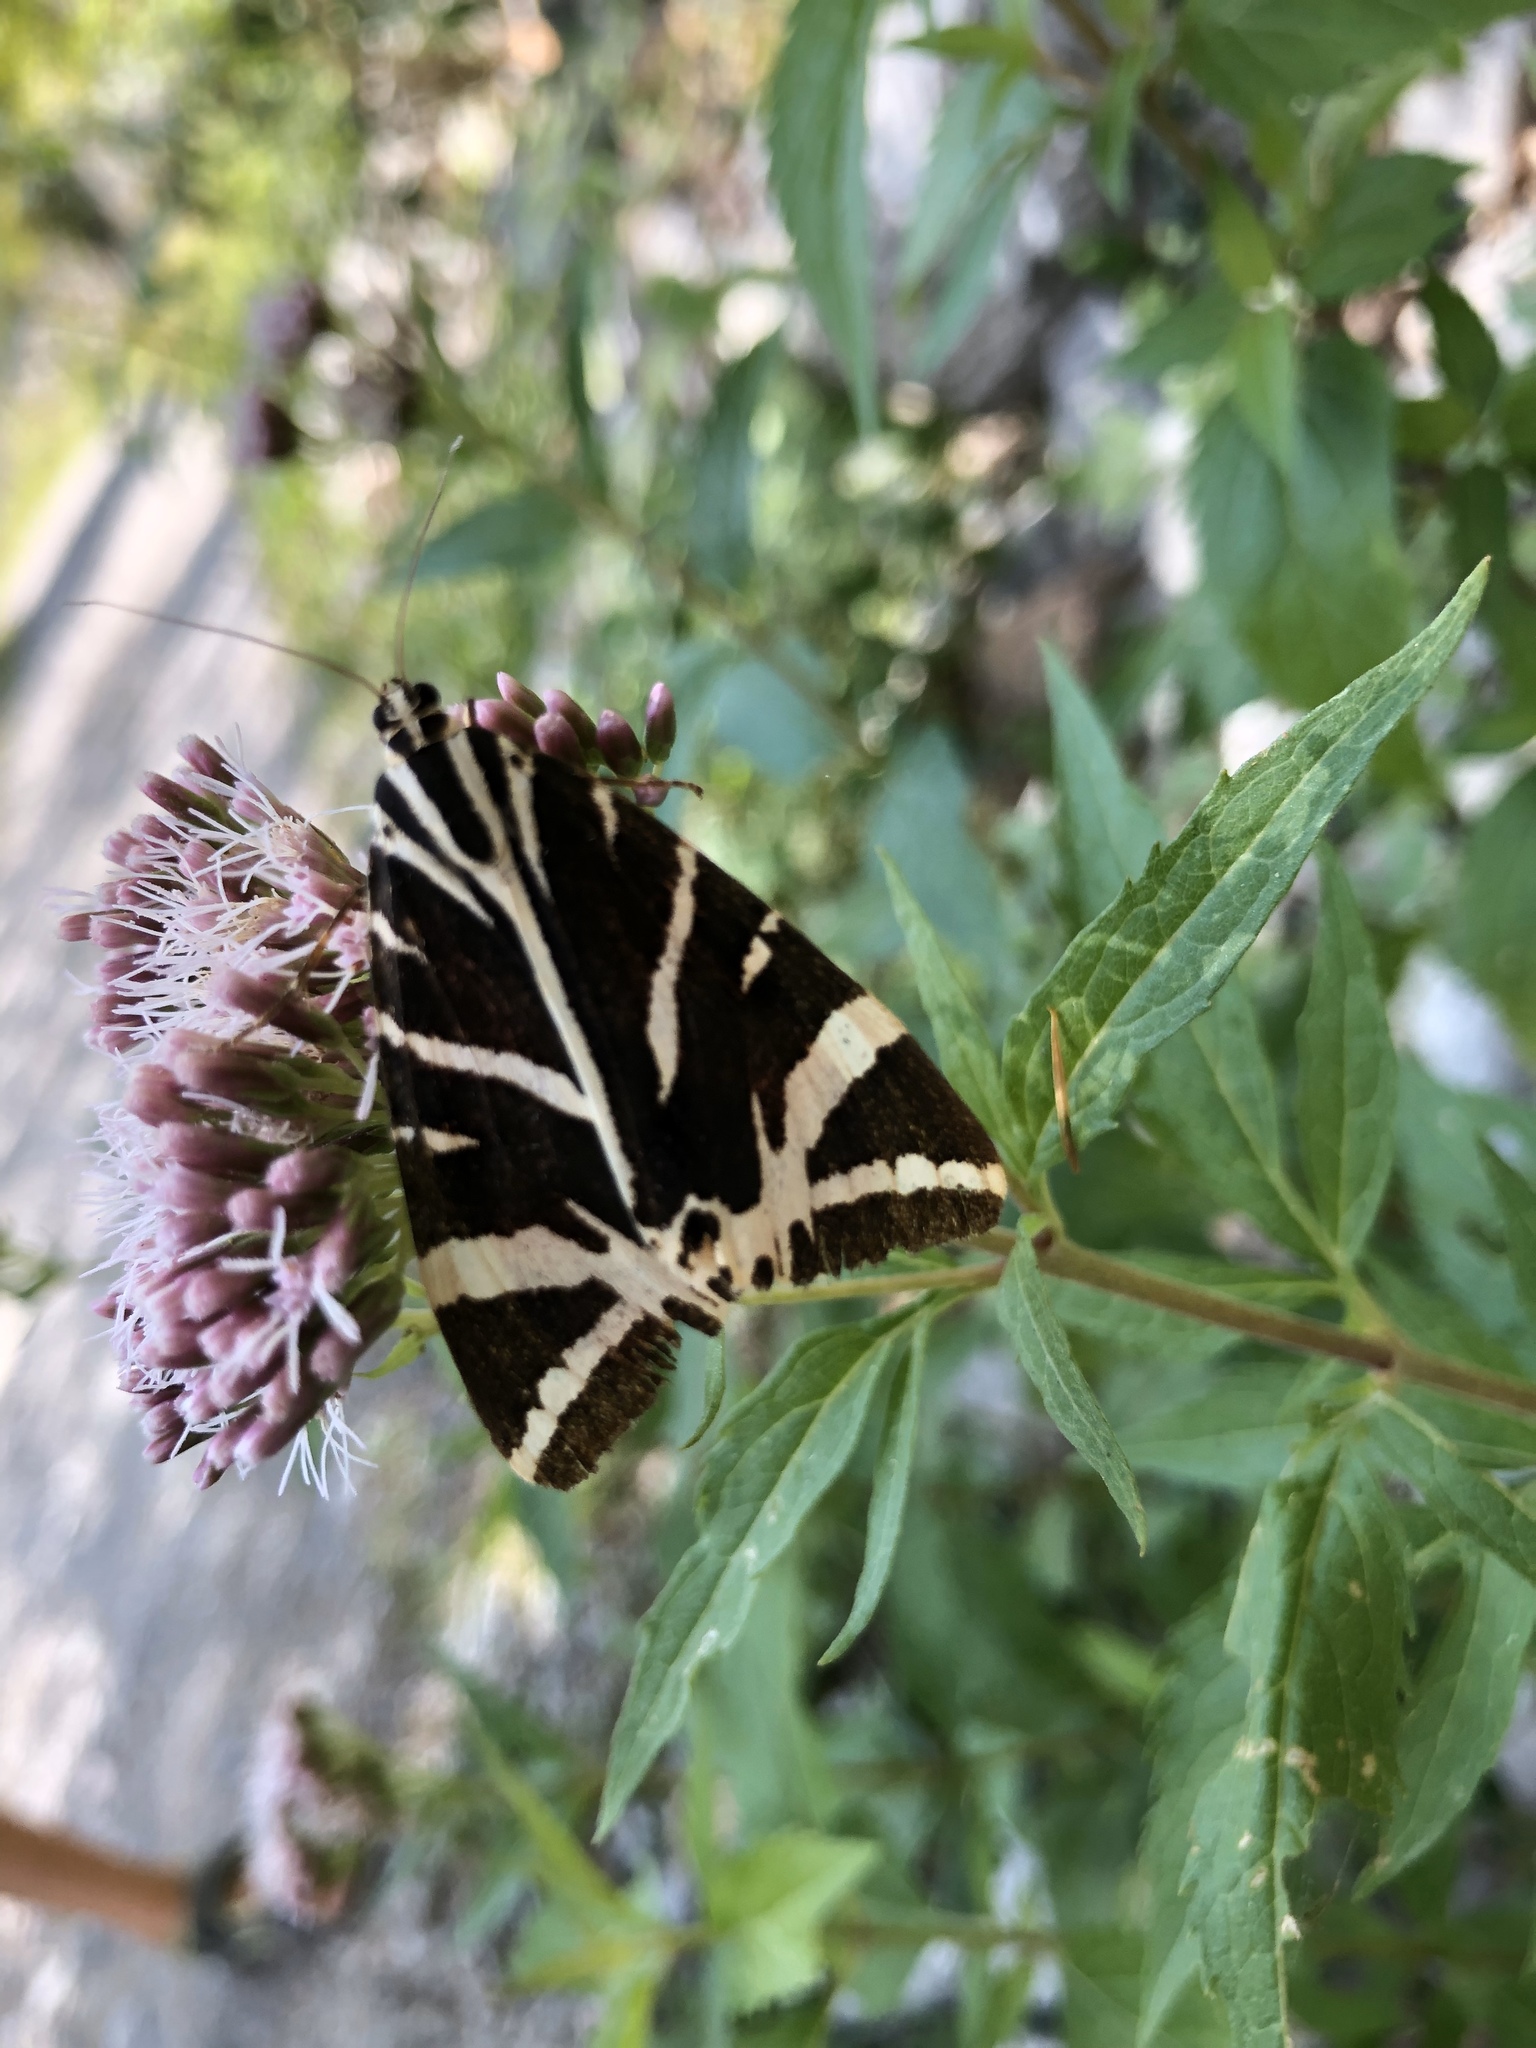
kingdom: Animalia
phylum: Arthropoda
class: Insecta
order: Lepidoptera
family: Erebidae
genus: Euplagia
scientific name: Euplagia quadripunctaria
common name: Jersey tiger
